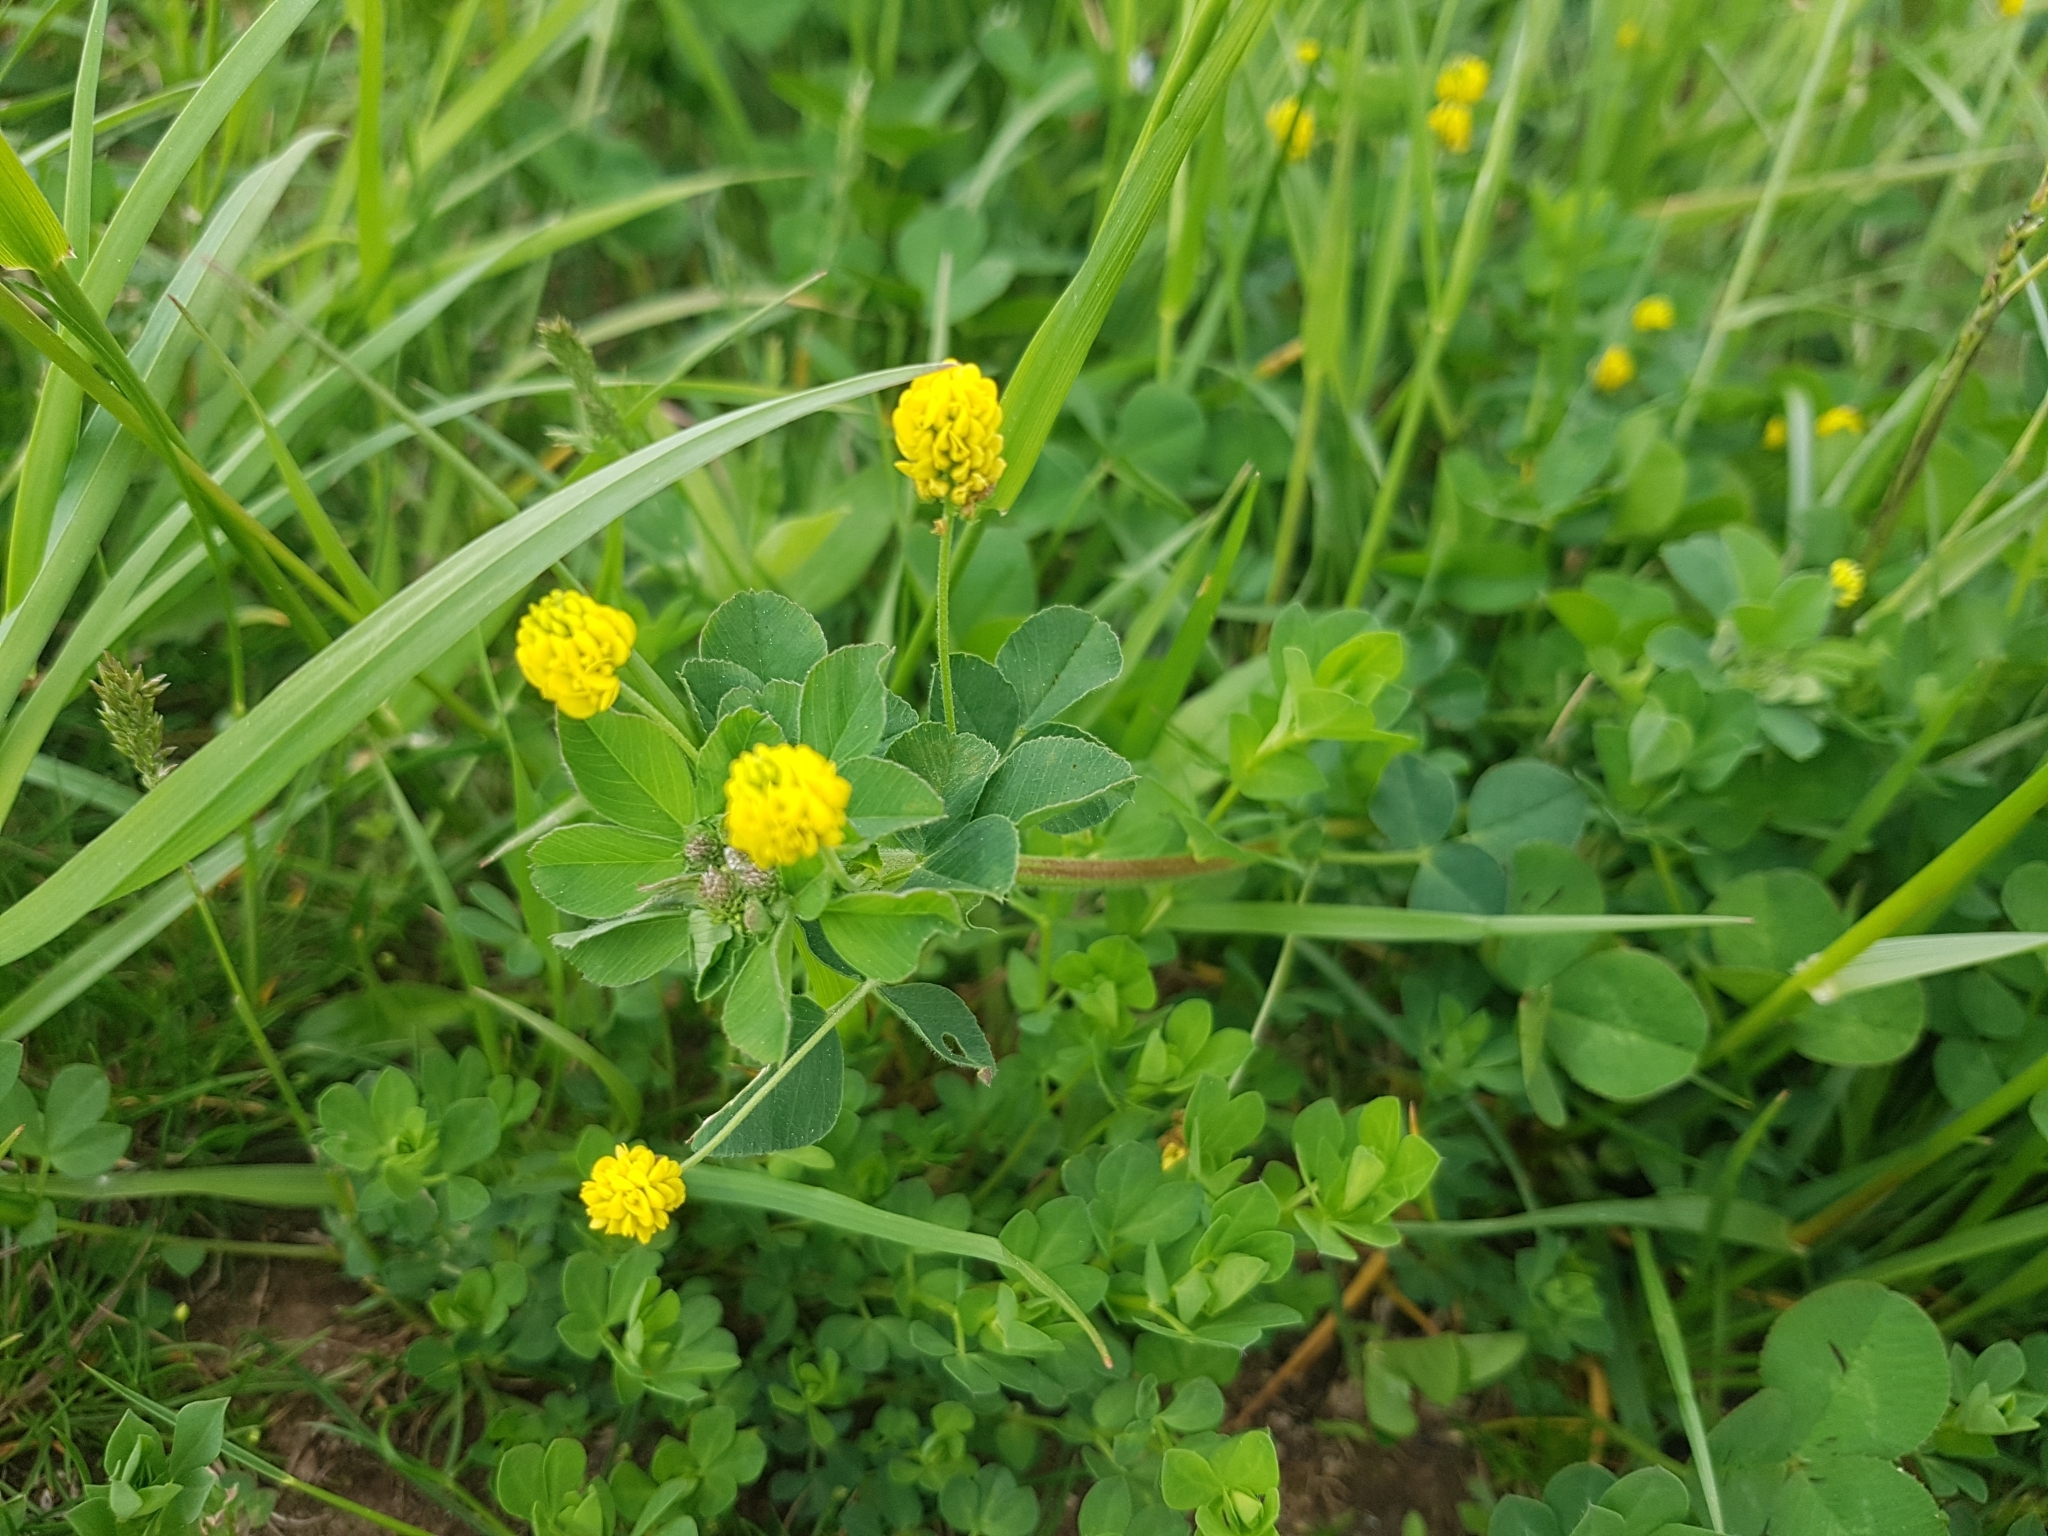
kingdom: Plantae
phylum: Tracheophyta
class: Magnoliopsida
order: Fabales
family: Fabaceae
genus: Medicago
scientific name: Medicago lupulina
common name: Black medick
